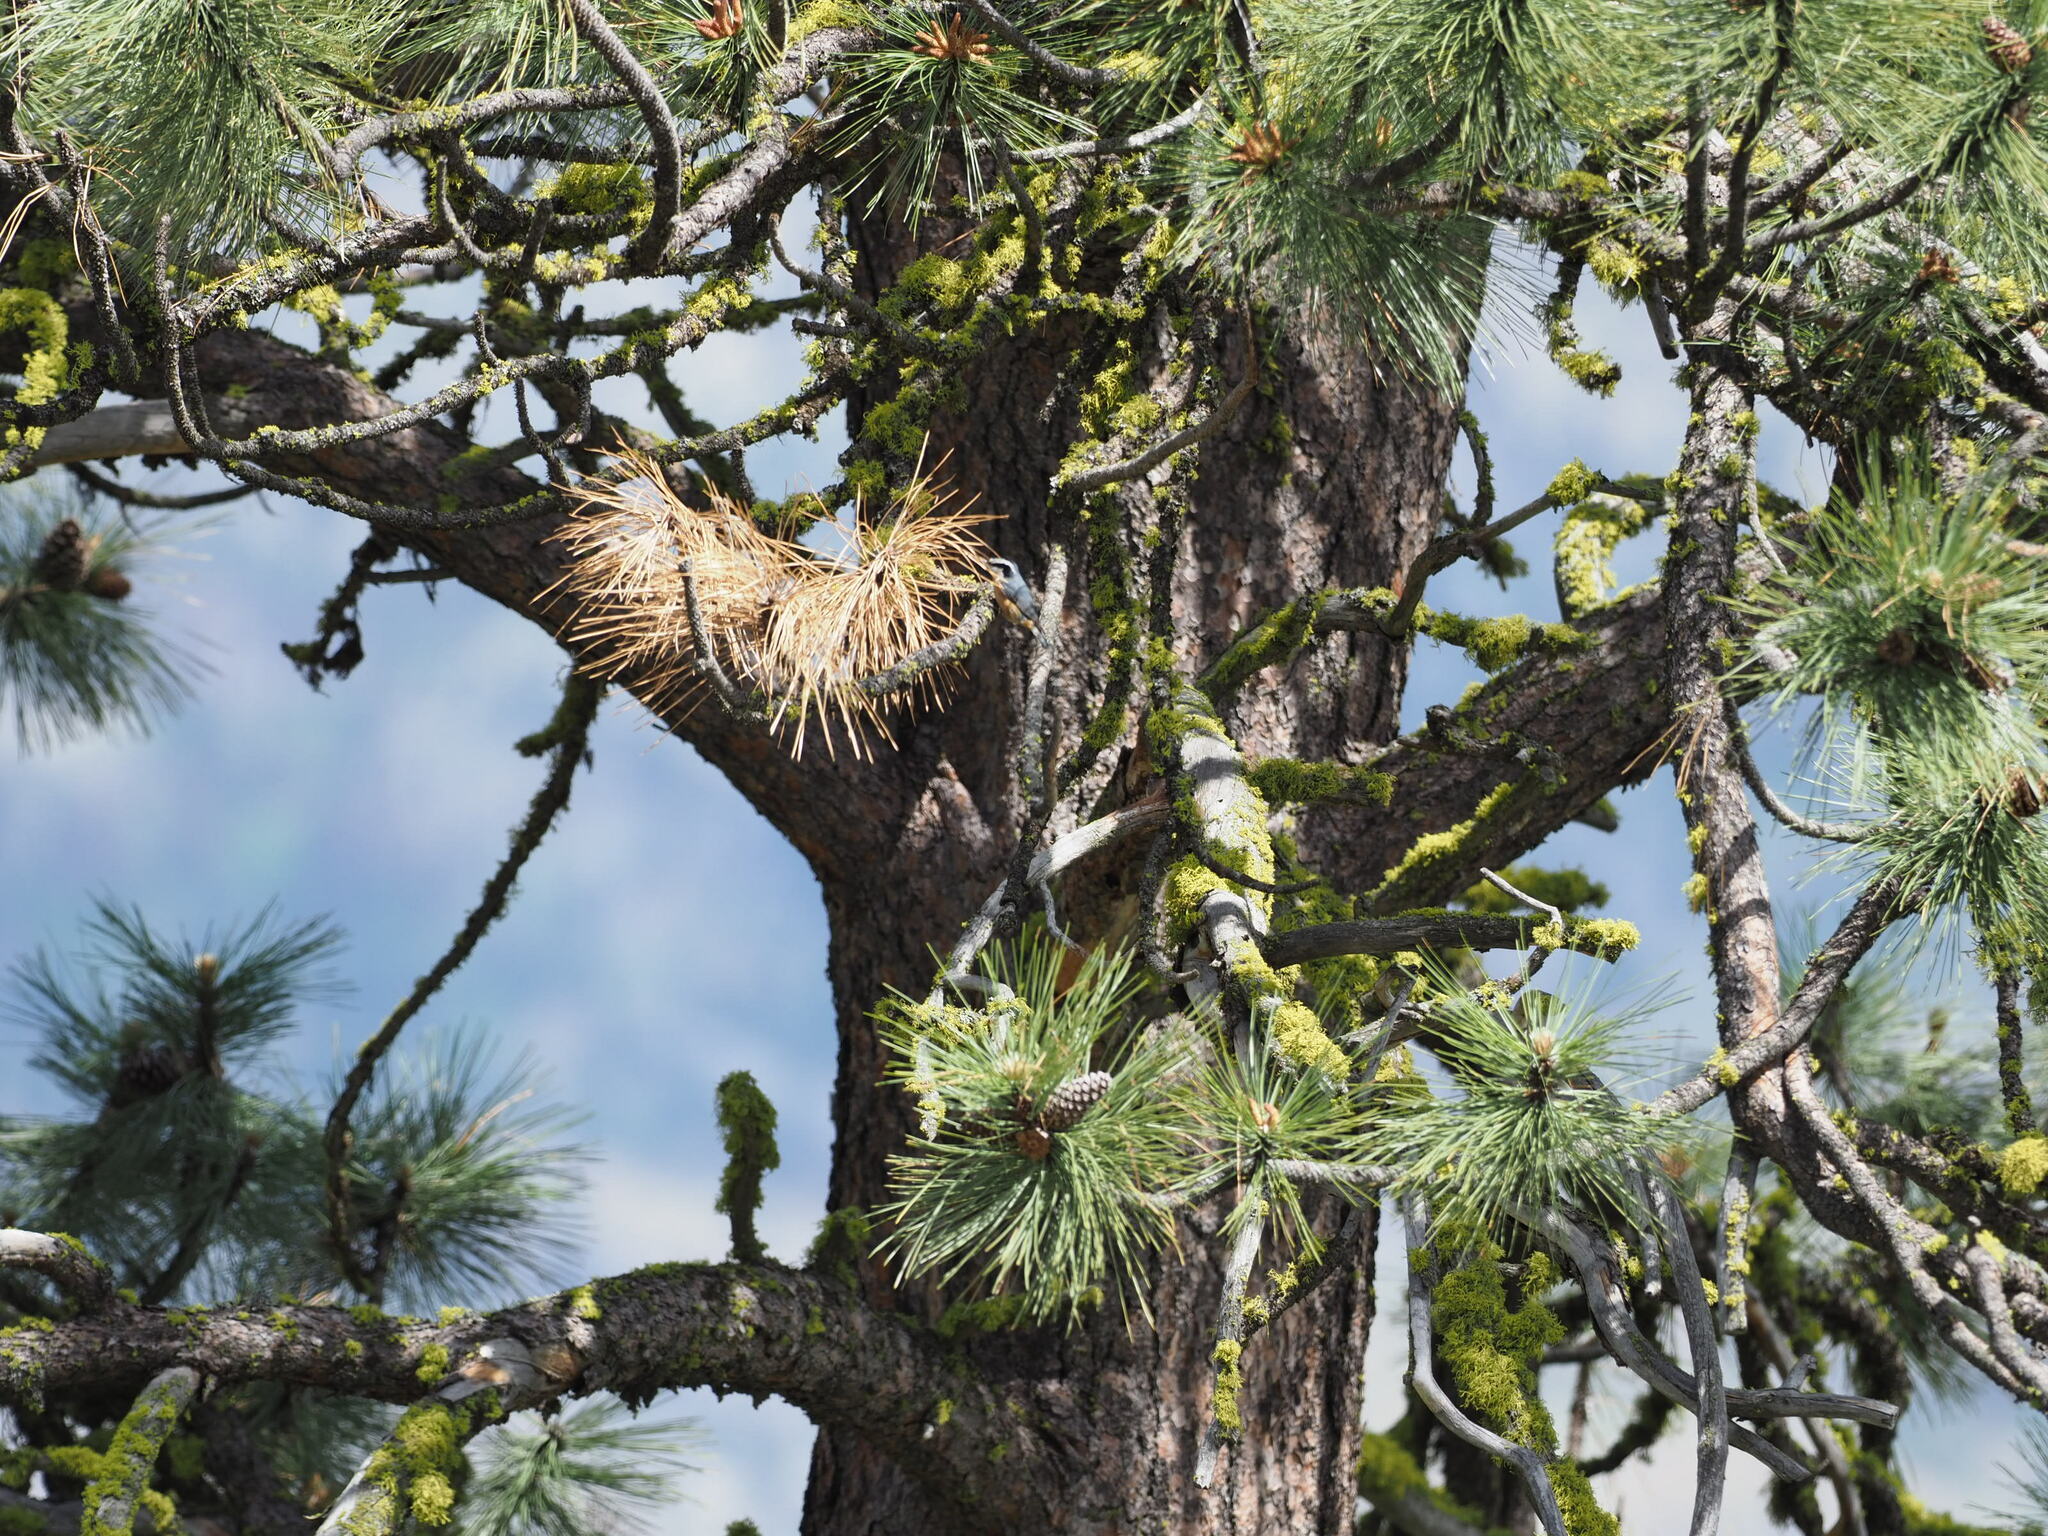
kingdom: Plantae
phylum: Tracheophyta
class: Pinopsida
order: Pinales
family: Pinaceae
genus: Pinus
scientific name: Pinus ponderosa
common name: Western yellow-pine
